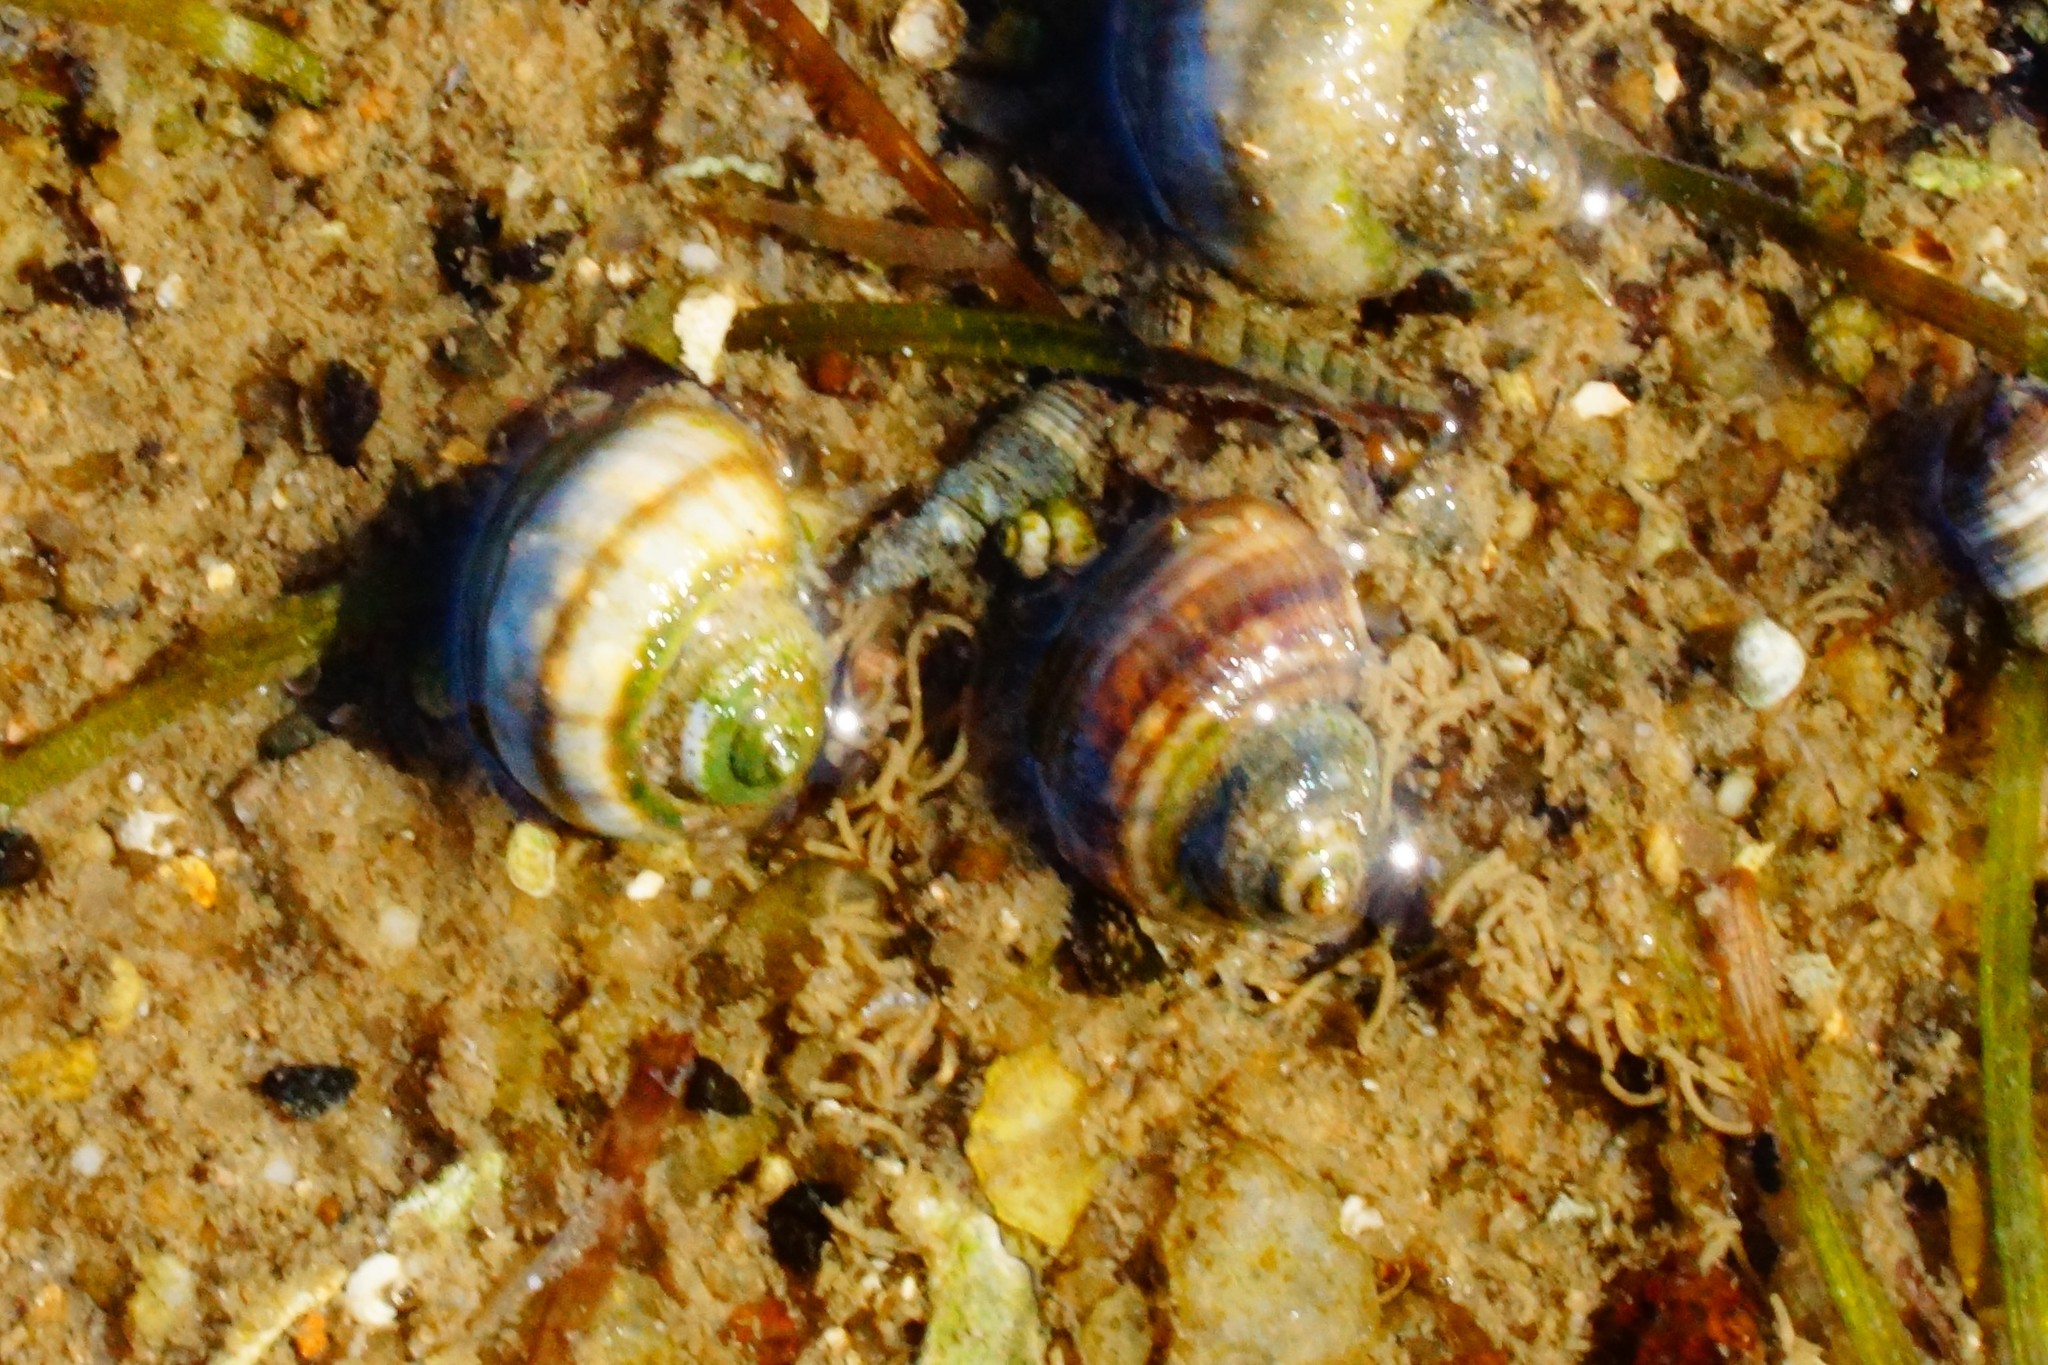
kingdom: Animalia
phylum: Mollusca
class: Gastropoda
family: Amphibolidae
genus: Salinator
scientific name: Salinator fragilis
